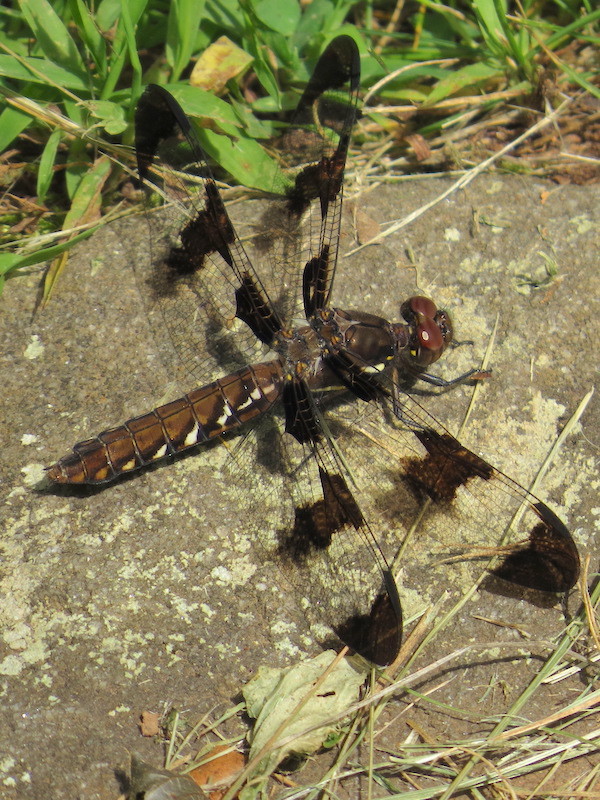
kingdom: Animalia
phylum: Arthropoda
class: Insecta
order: Odonata
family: Libellulidae
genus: Plathemis
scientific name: Plathemis lydia
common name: Common whitetail
